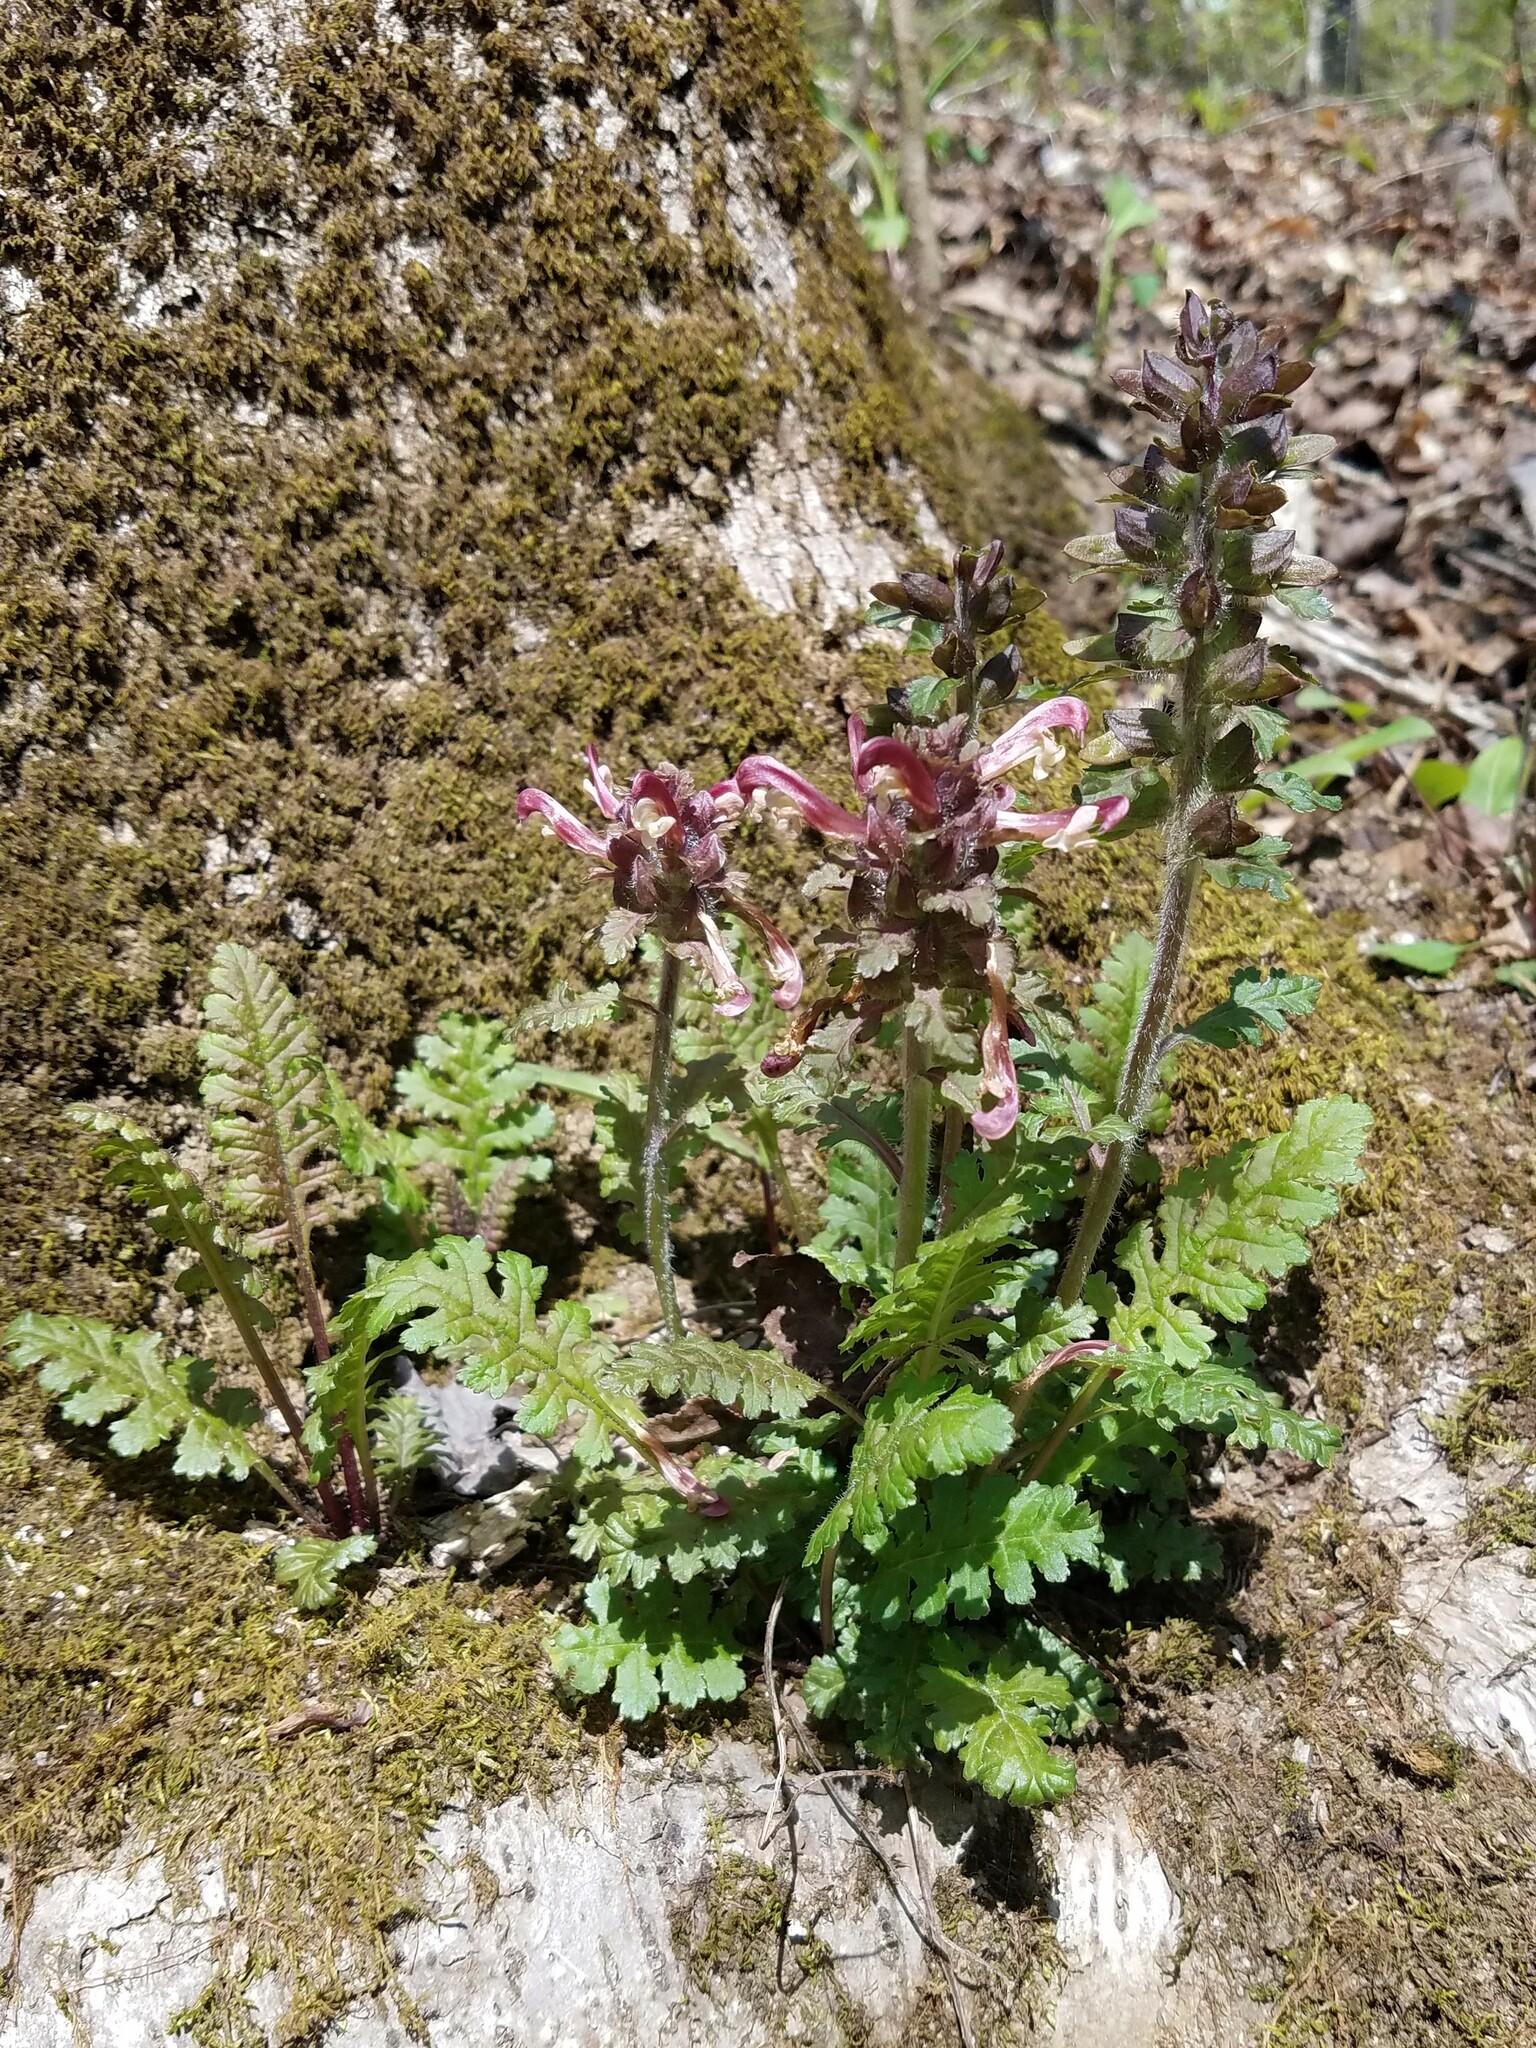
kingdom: Plantae
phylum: Tracheophyta
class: Magnoliopsida
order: Lamiales
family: Orobanchaceae
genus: Pedicularis
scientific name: Pedicularis canadensis
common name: Early lousewort
